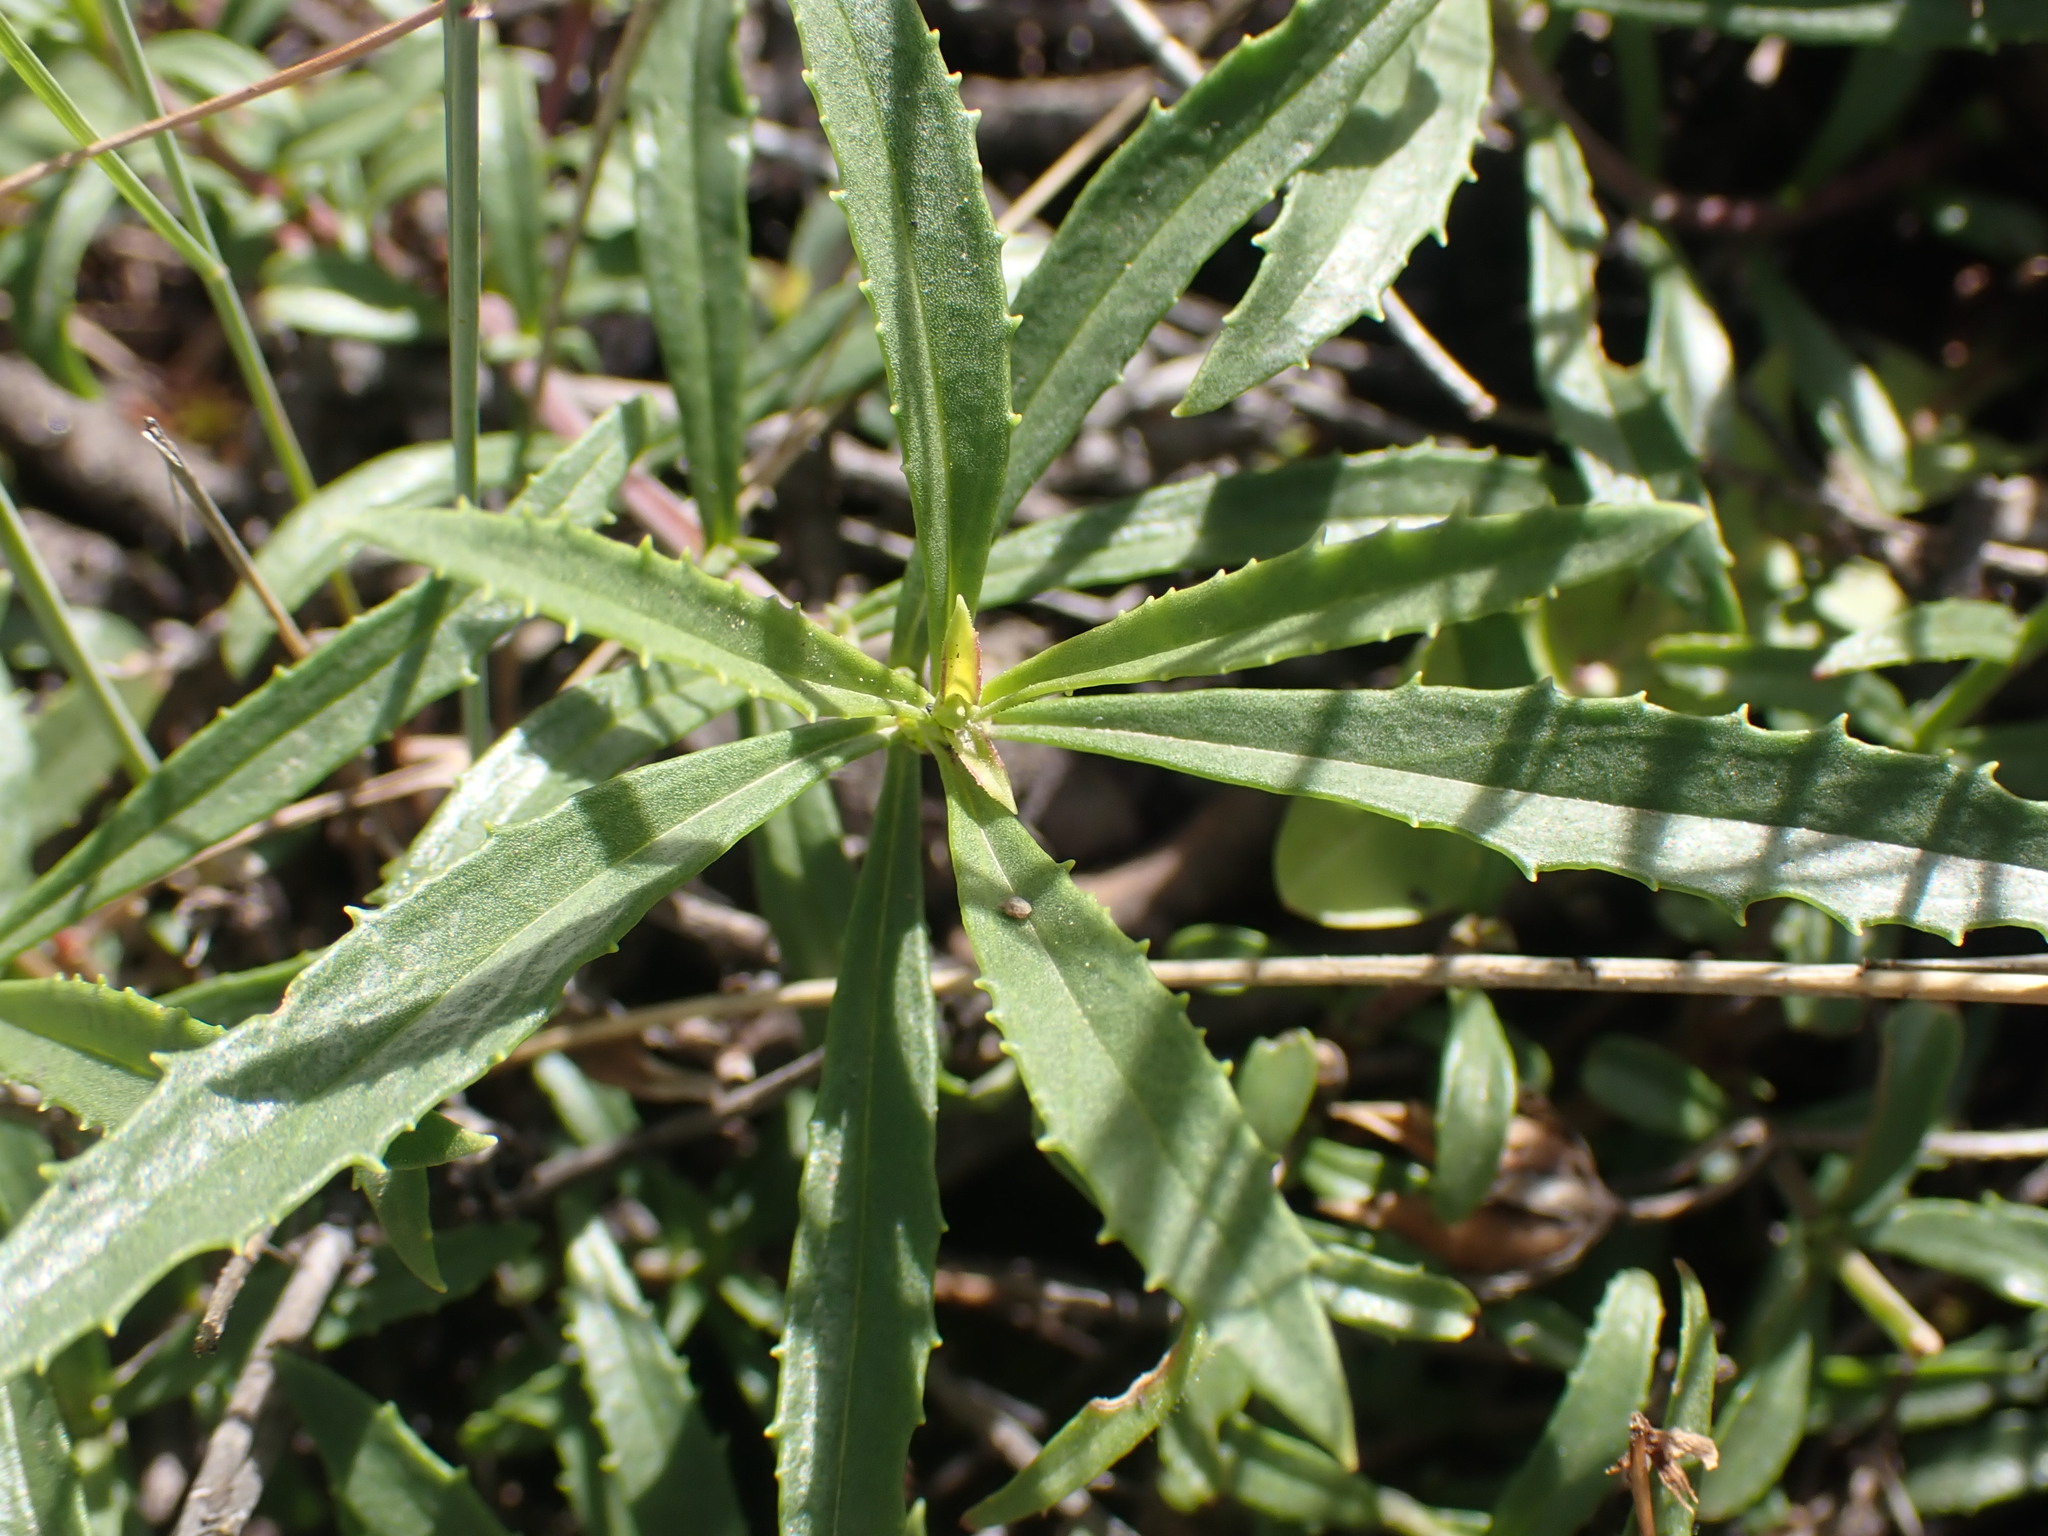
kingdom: Plantae
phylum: Tracheophyta
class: Magnoliopsida
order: Lamiales
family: Plantaginaceae
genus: Penstemon
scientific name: Penstemon fruticosus
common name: Bush penstemon
